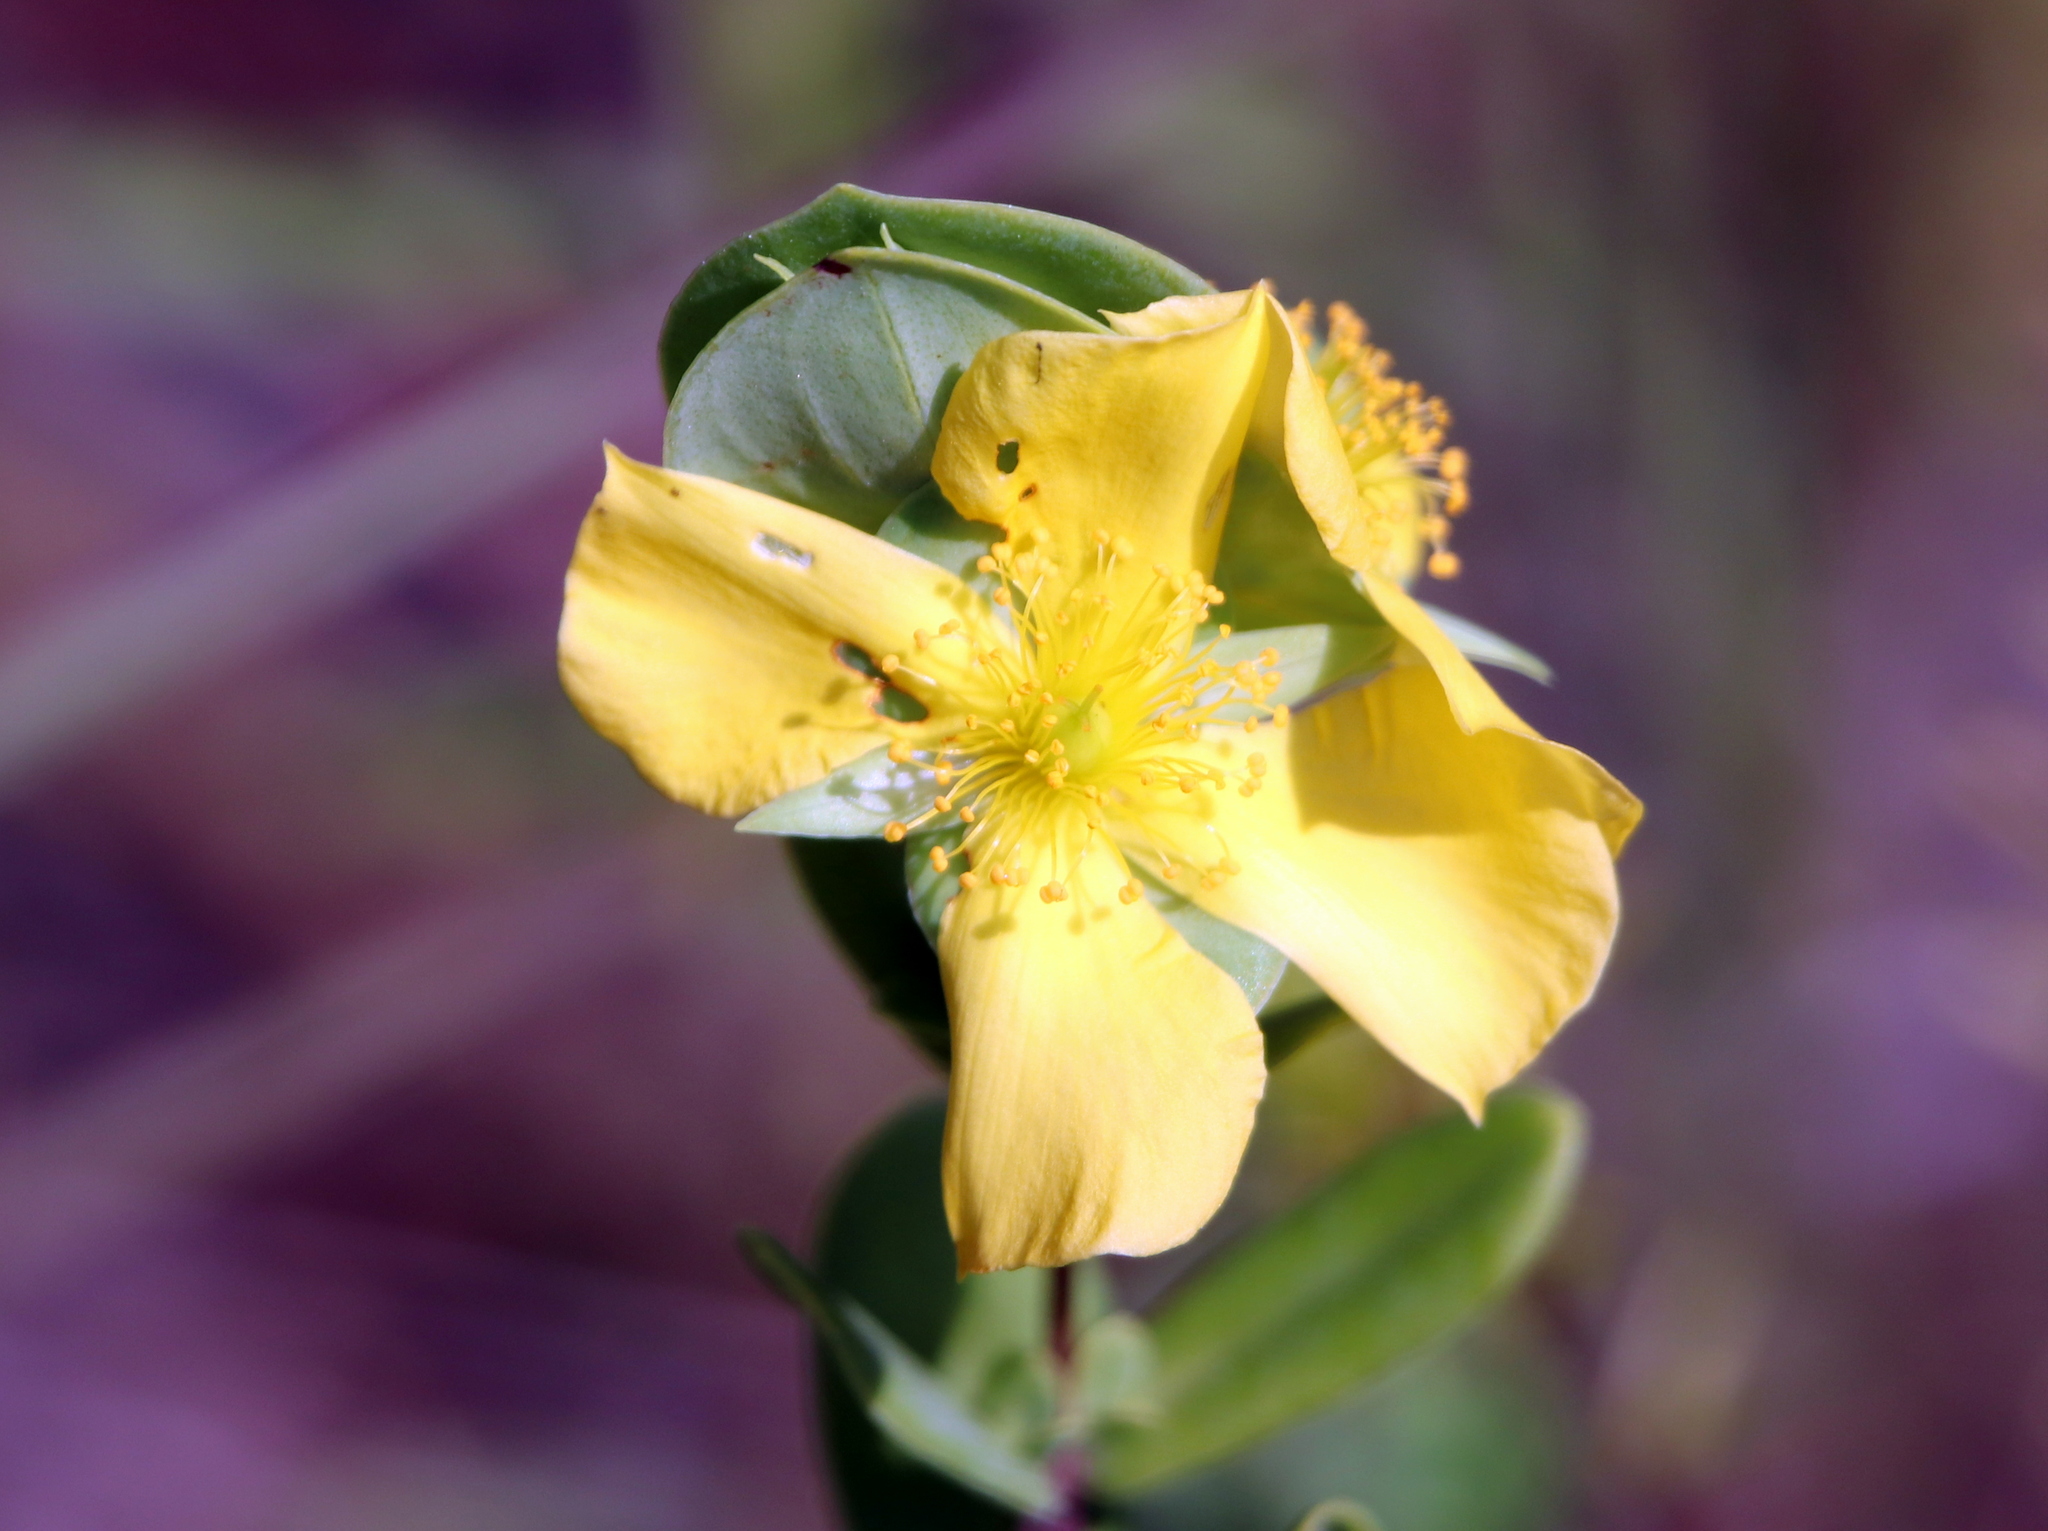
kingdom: Plantae
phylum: Tracheophyta
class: Magnoliopsida
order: Malpighiales
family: Hypericaceae
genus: Hypericum
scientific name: Hypericum crux-andreae
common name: St.-peter's-wort
